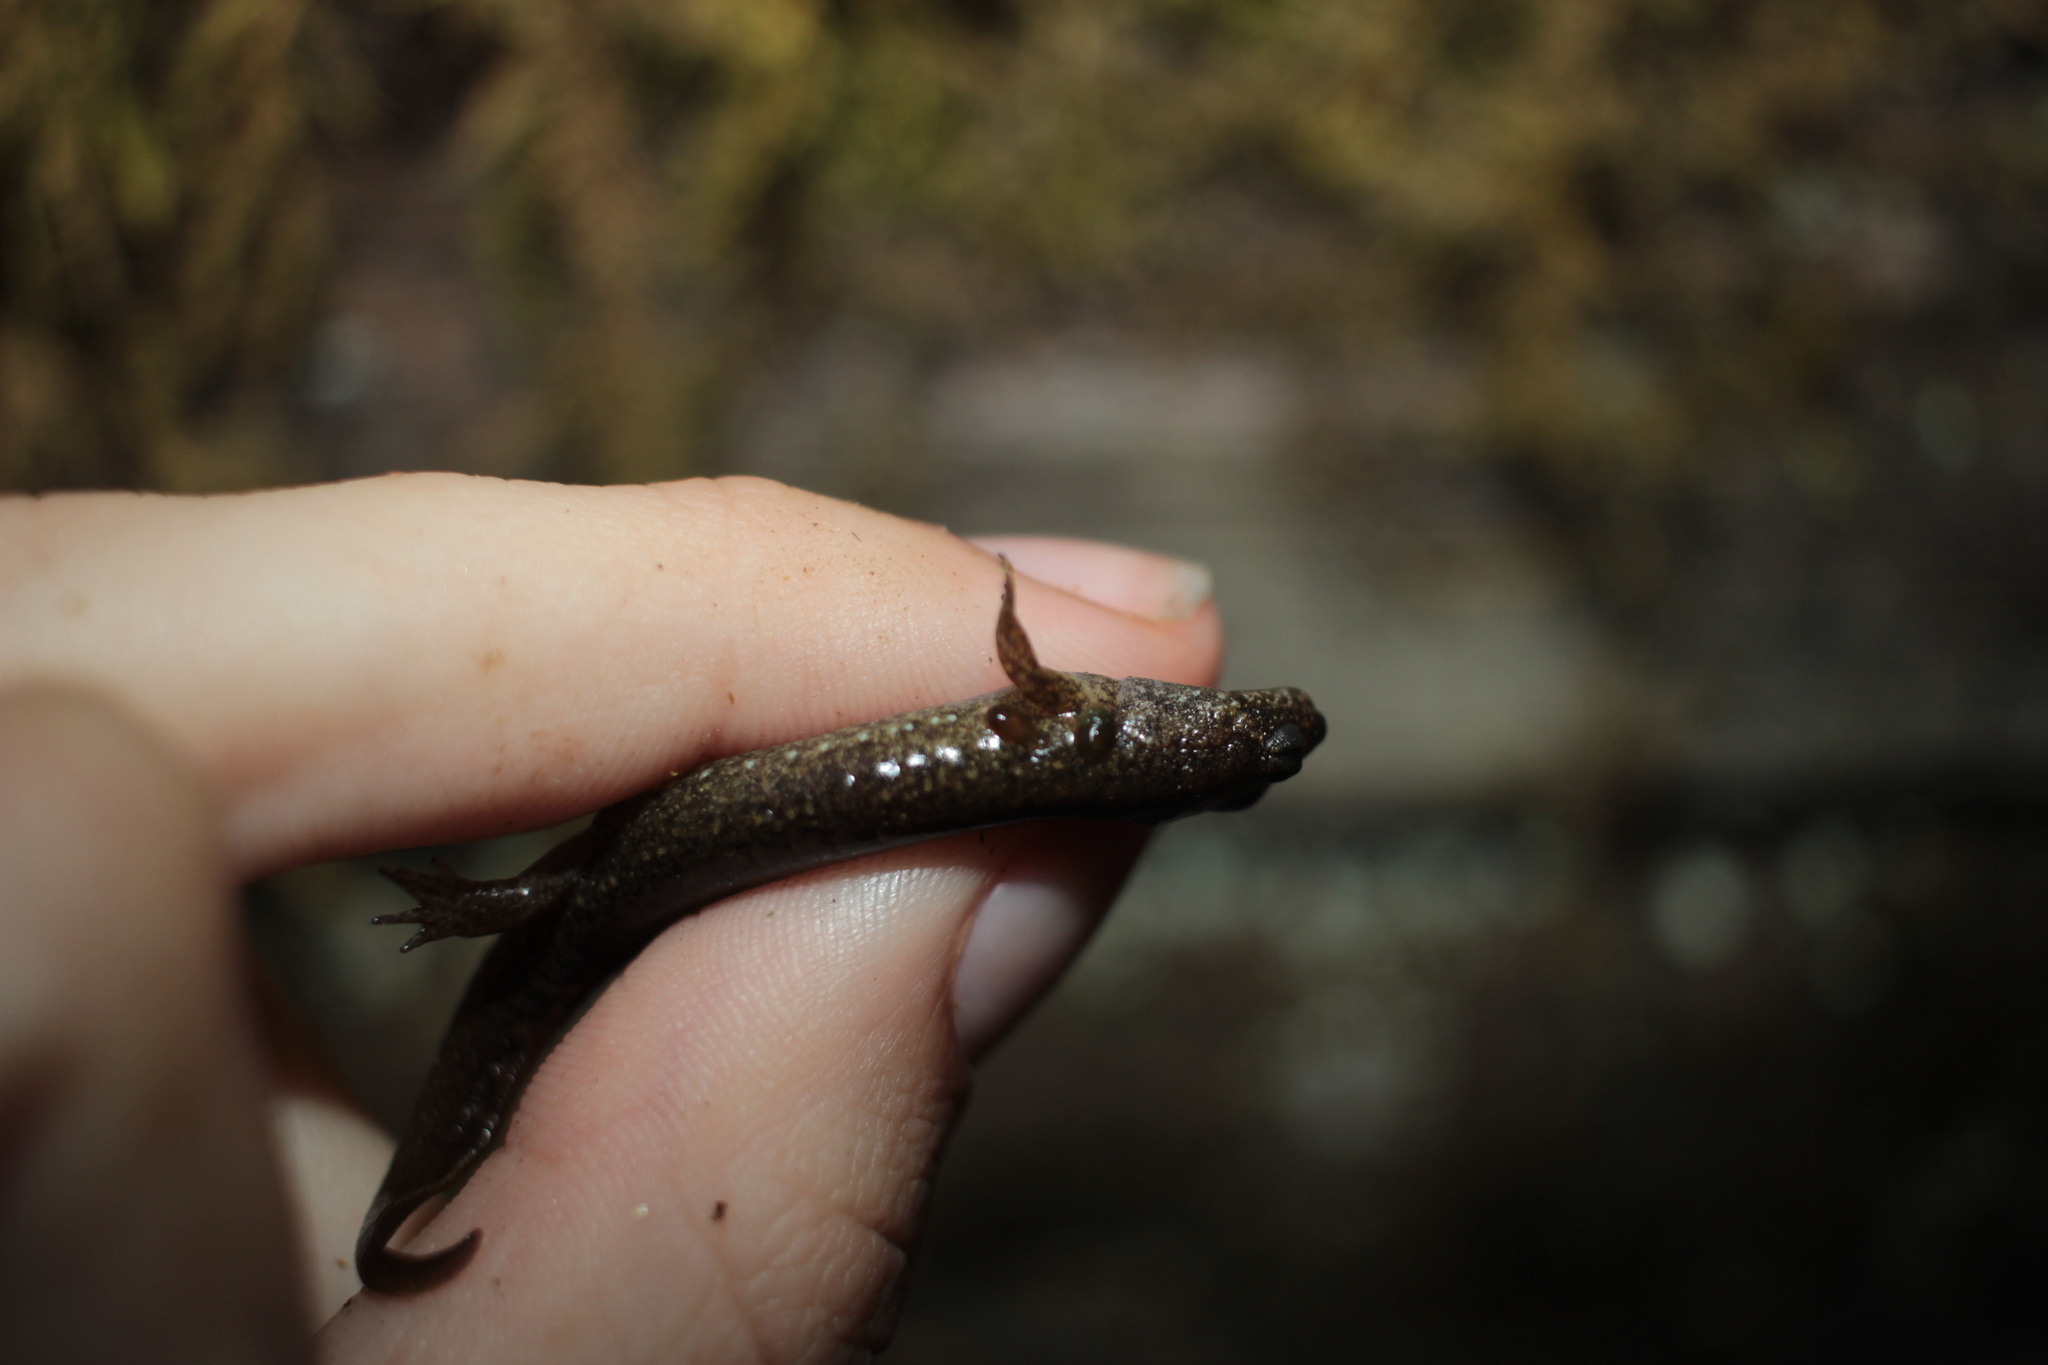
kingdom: Animalia
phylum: Chordata
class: Amphibia
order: Caudata
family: Plethodontidae
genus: Desmognathus
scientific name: Desmognathus
